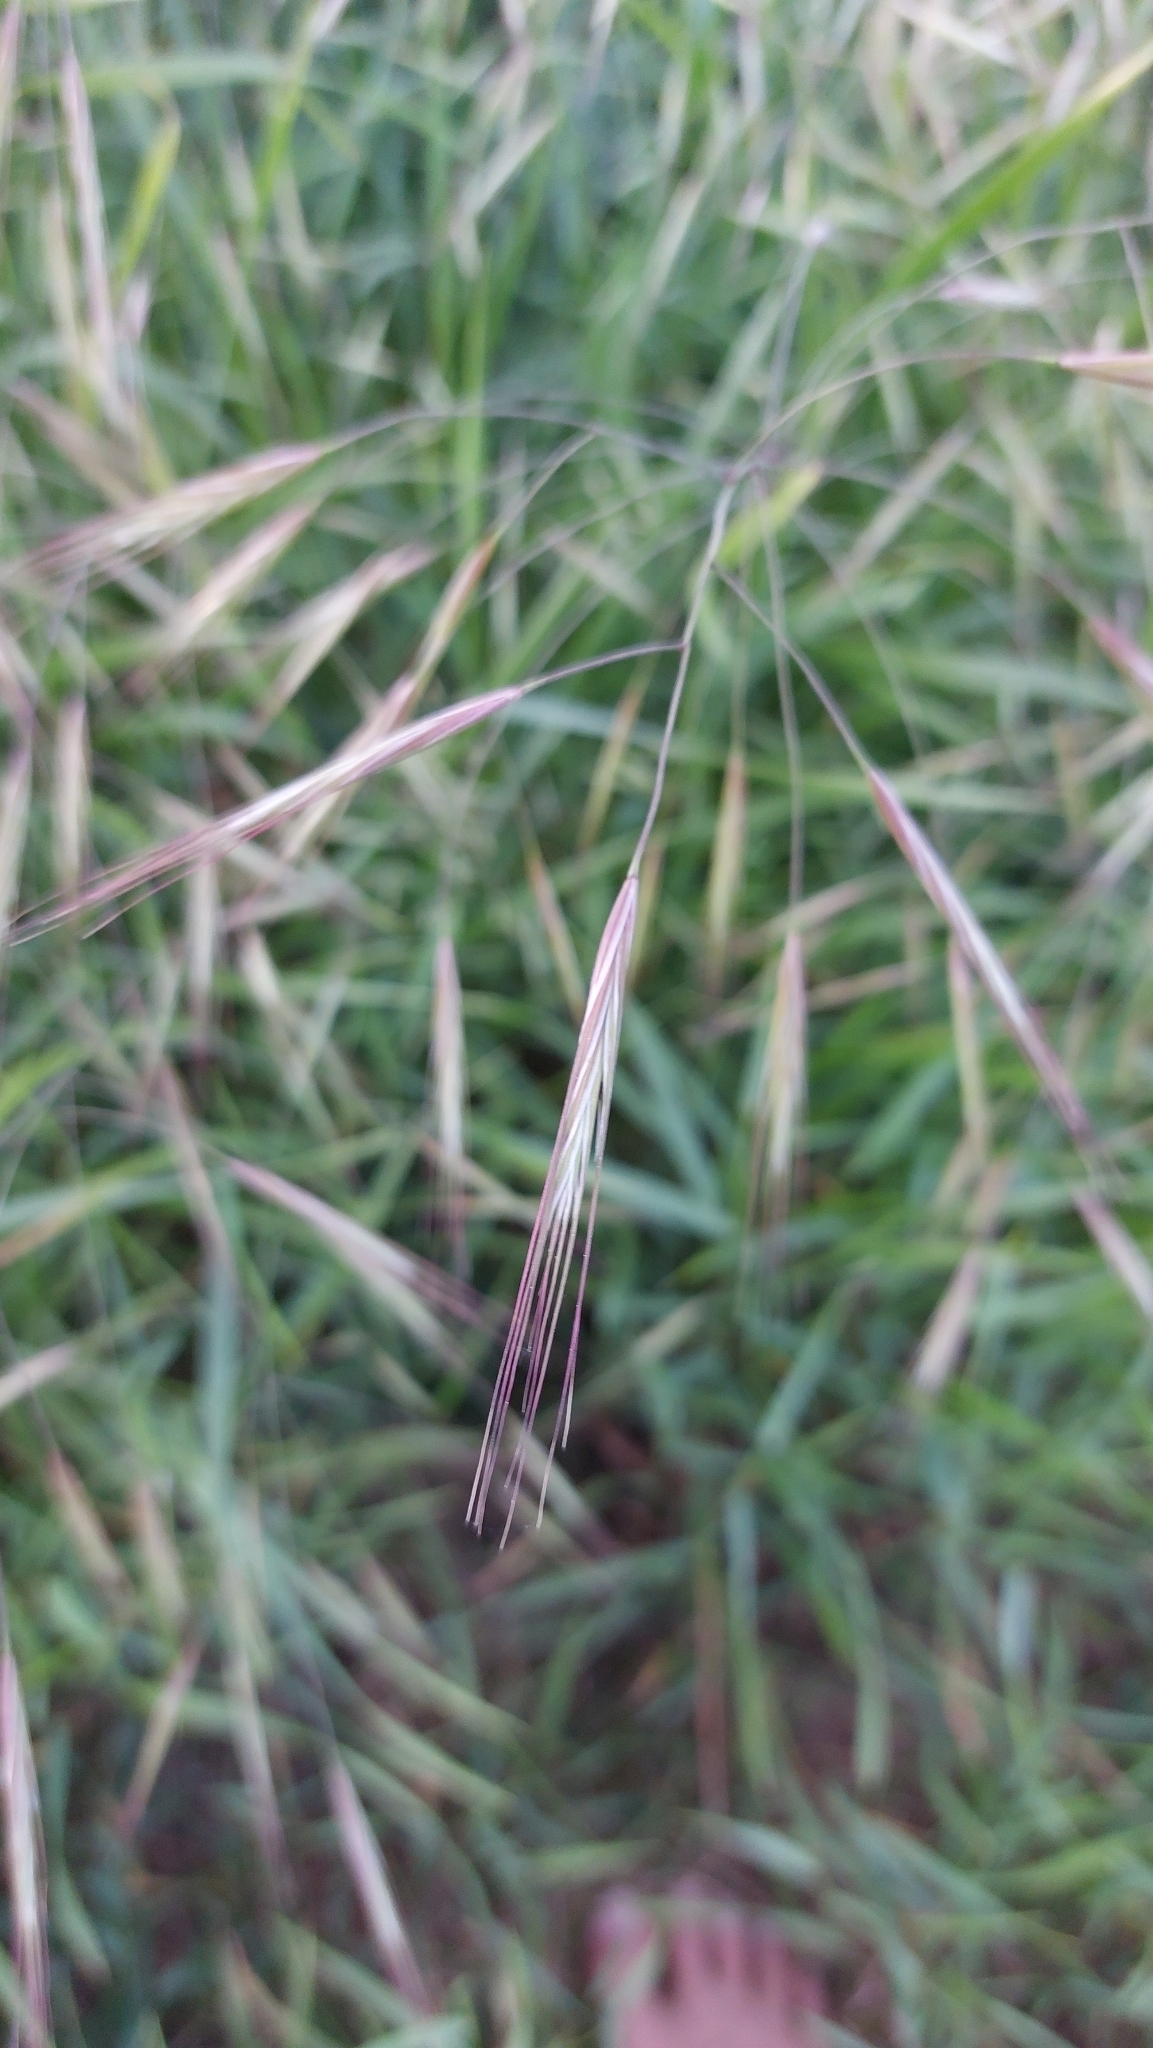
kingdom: Plantae
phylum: Tracheophyta
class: Liliopsida
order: Poales
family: Poaceae
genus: Bromus
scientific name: Bromus sterilis
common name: Poverty brome
